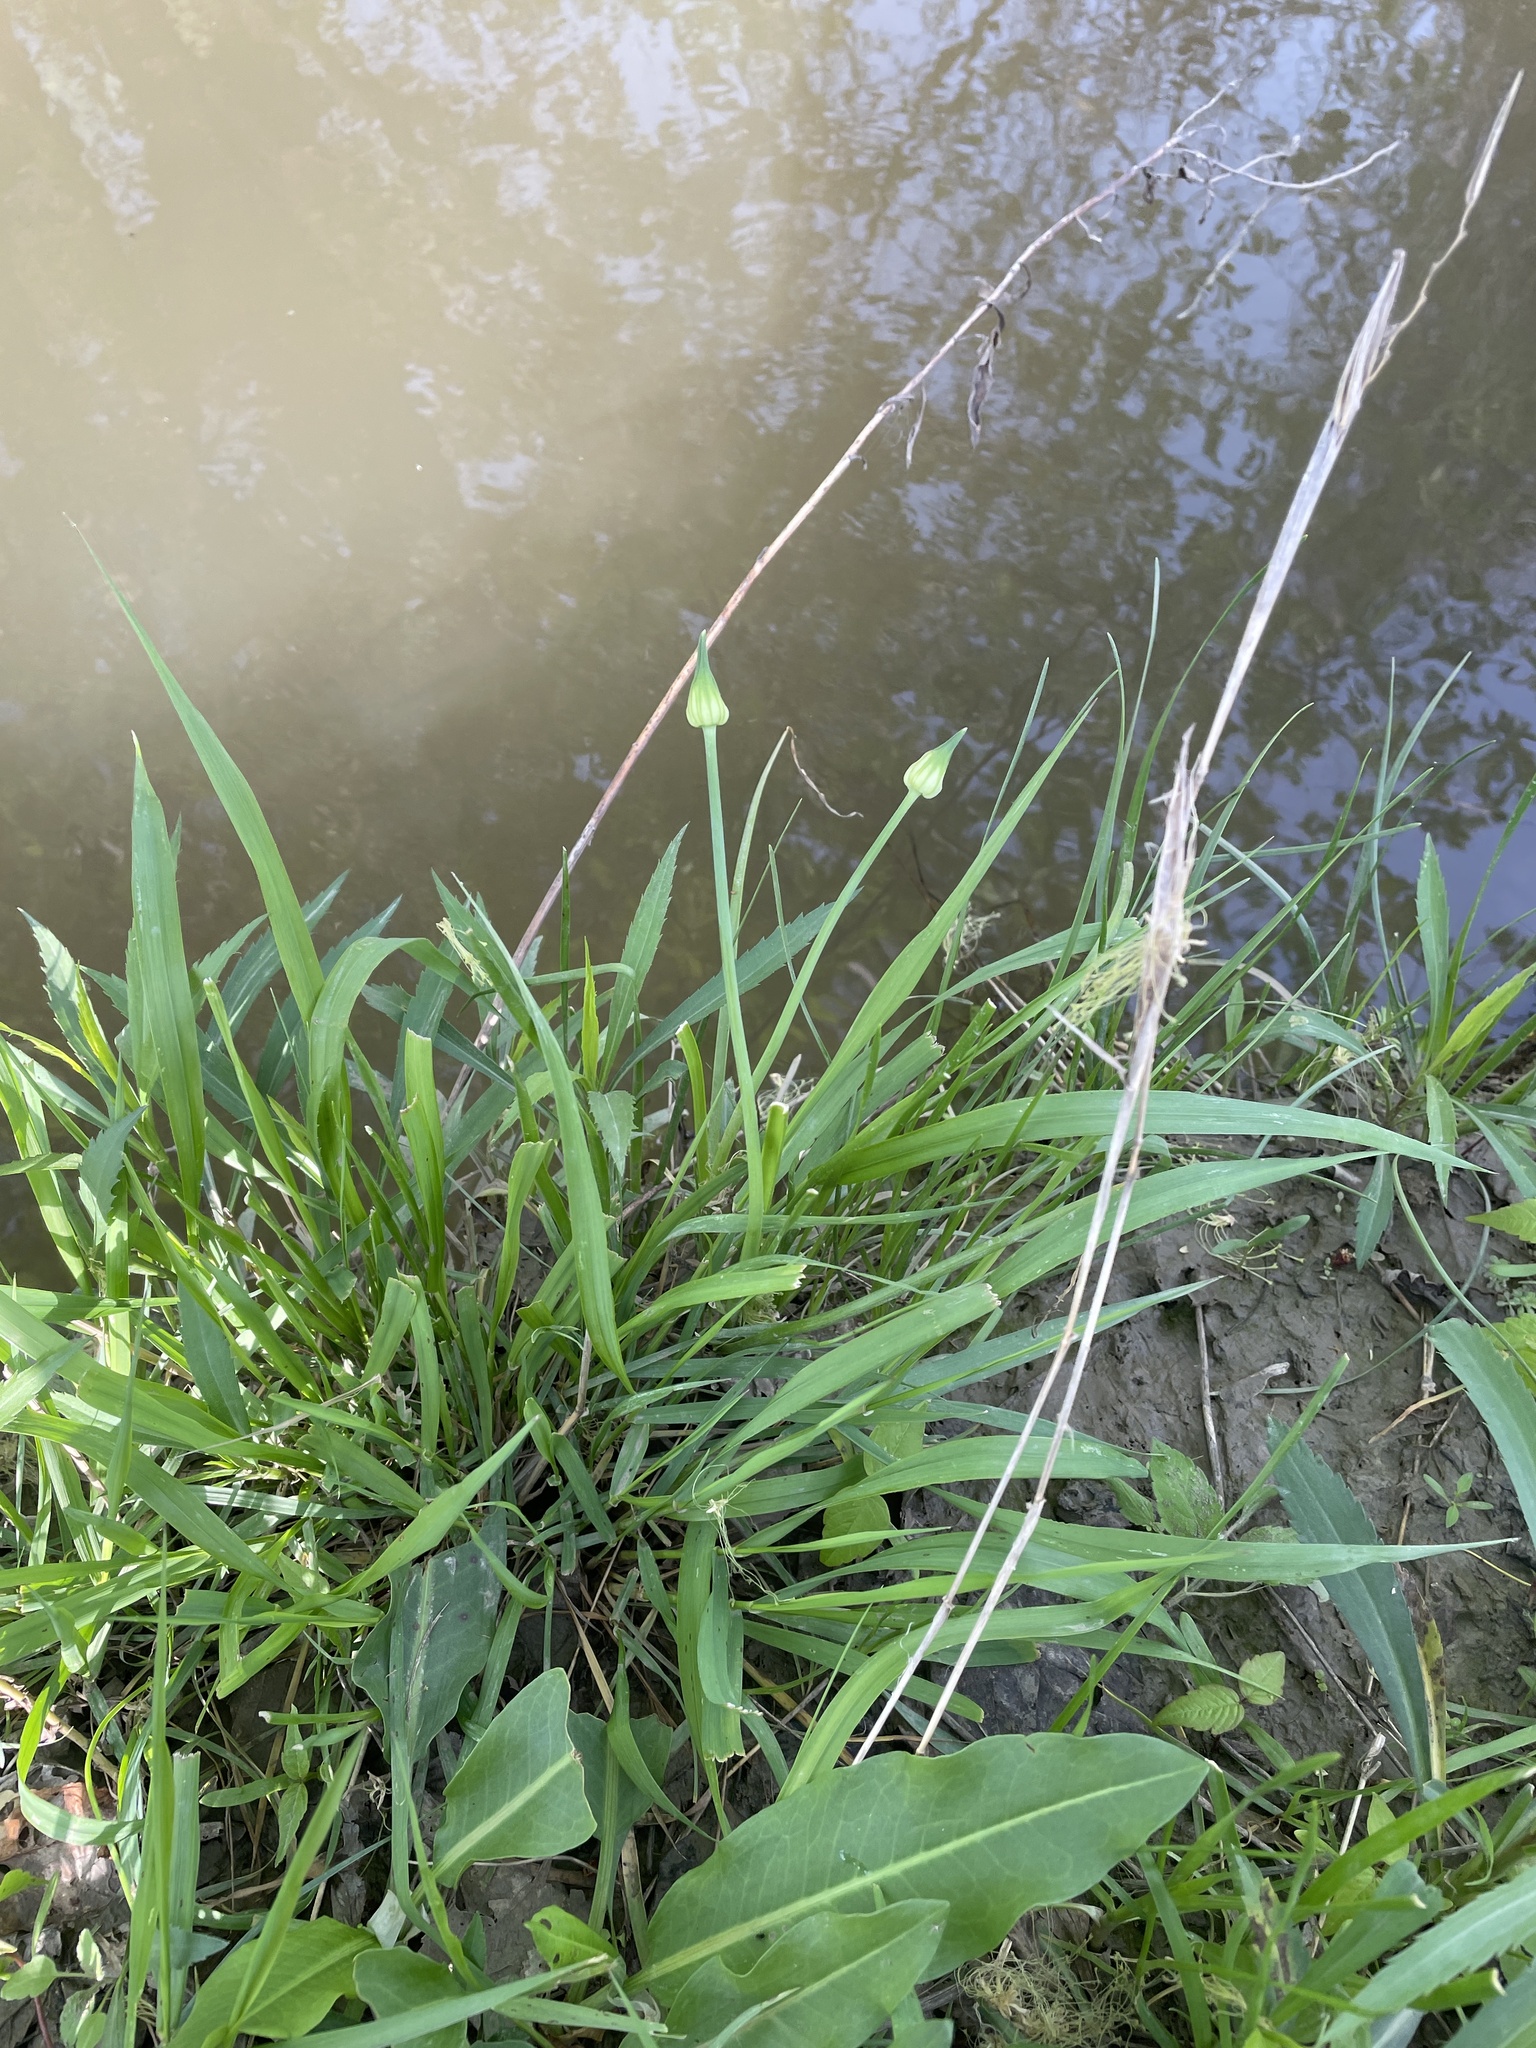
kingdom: Plantae
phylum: Tracheophyta
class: Liliopsida
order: Asparagales
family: Amaryllidaceae
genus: Allium
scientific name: Allium canadense
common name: Meadow garlic
